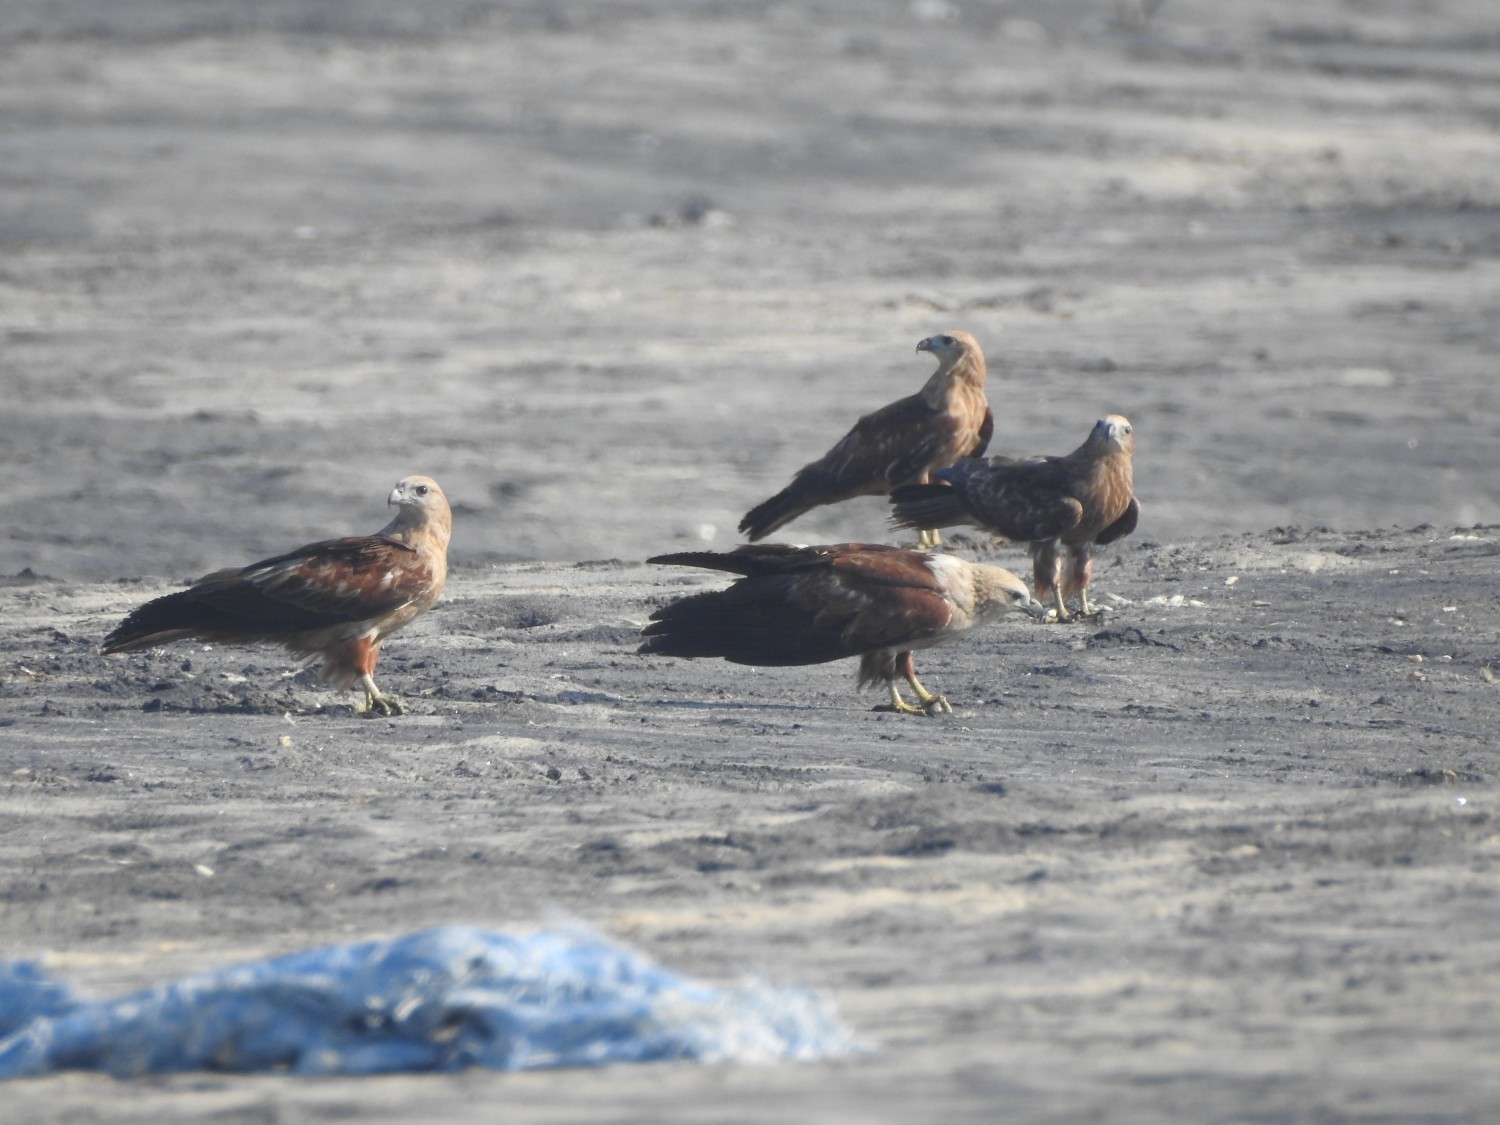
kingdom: Animalia
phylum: Chordata
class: Aves
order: Accipitriformes
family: Accipitridae
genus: Haliastur
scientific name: Haliastur indus
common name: Brahminy kite
